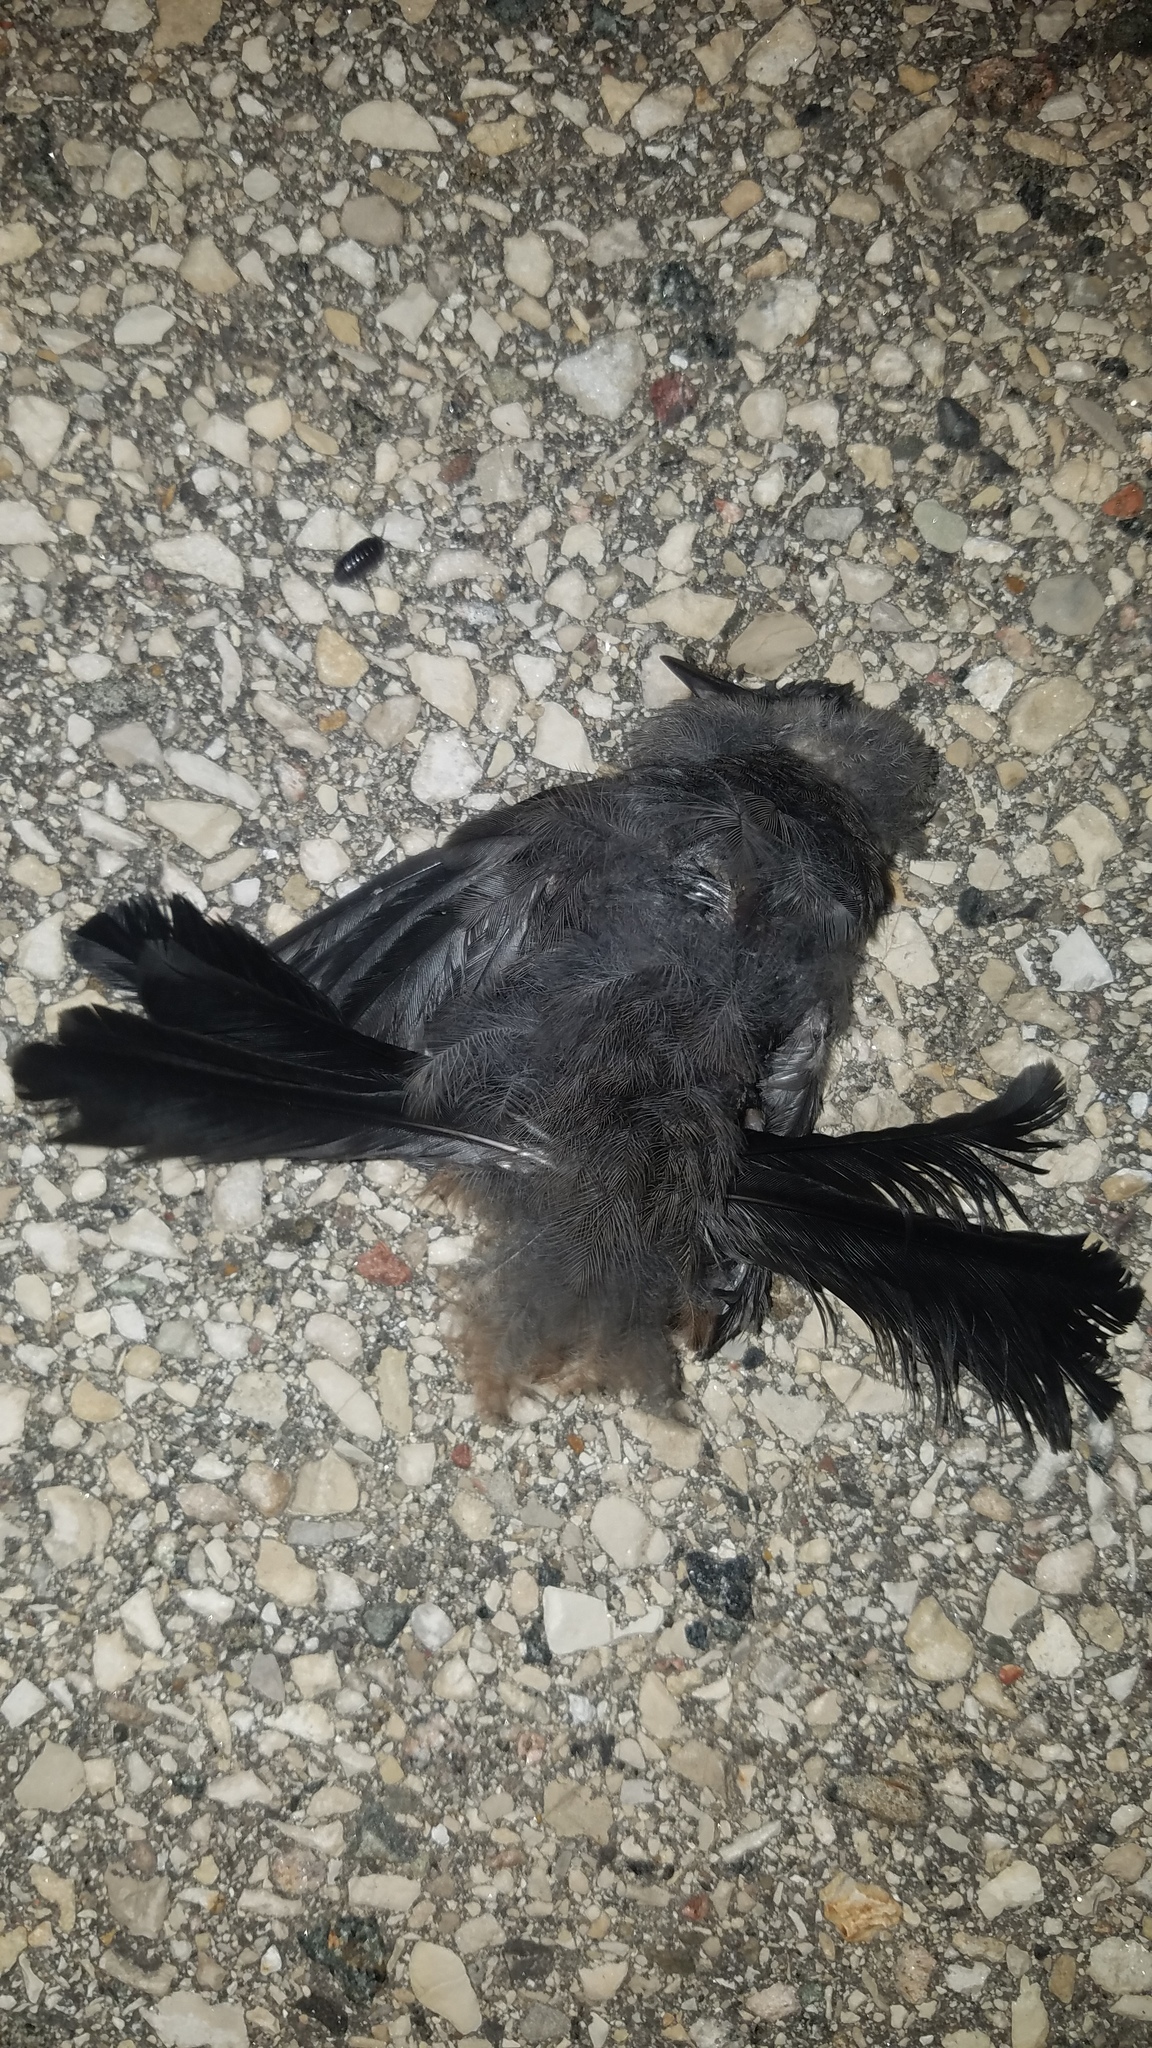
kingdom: Animalia
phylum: Chordata
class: Aves
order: Passeriformes
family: Mimidae
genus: Dumetella
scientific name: Dumetella carolinensis
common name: Gray catbird
